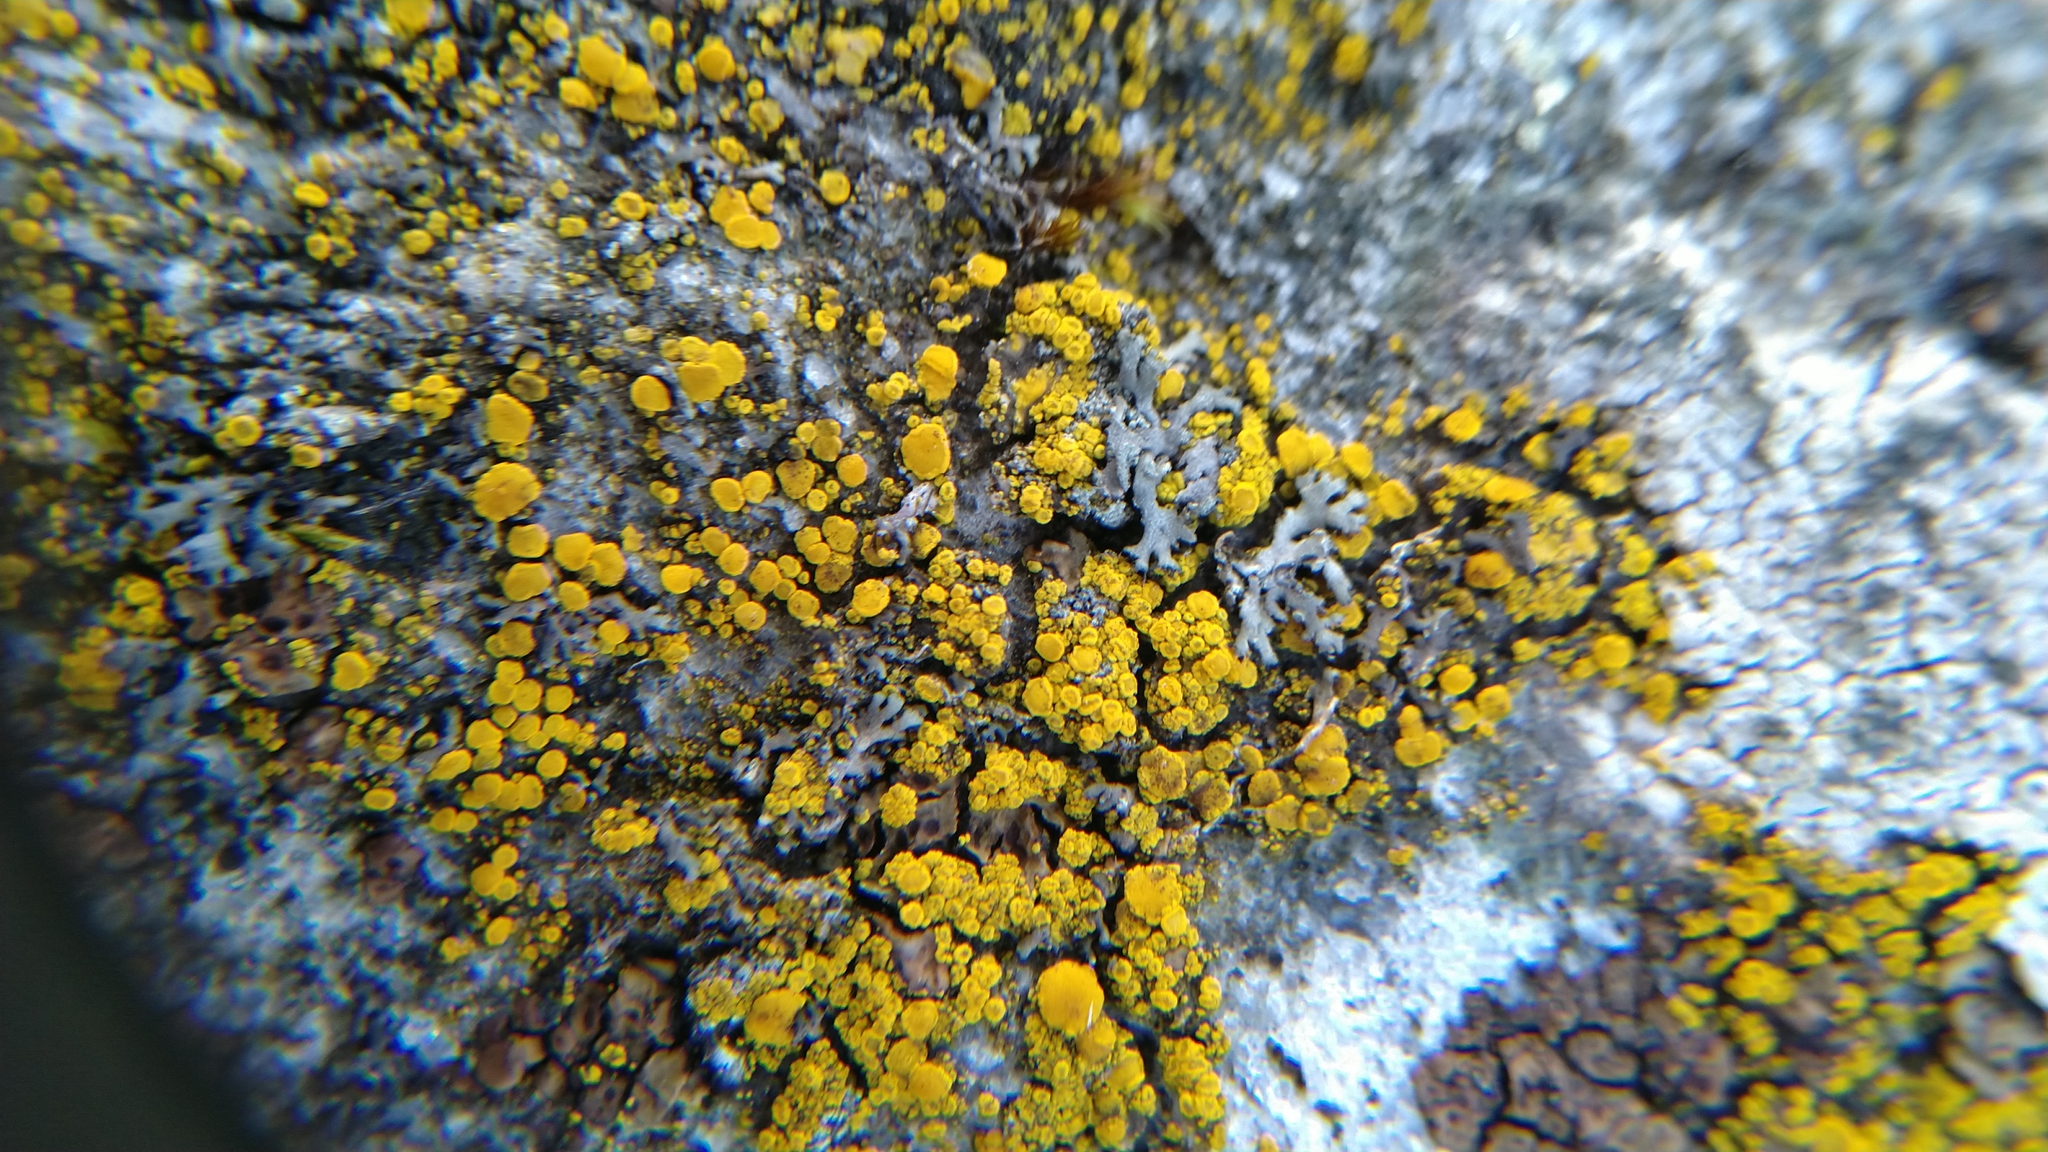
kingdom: Fungi
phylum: Ascomycota
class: Candelariomycetes
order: Candelariales
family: Candelariaceae
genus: Candelariella
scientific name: Candelariella vitellina
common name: Common goldspeck
